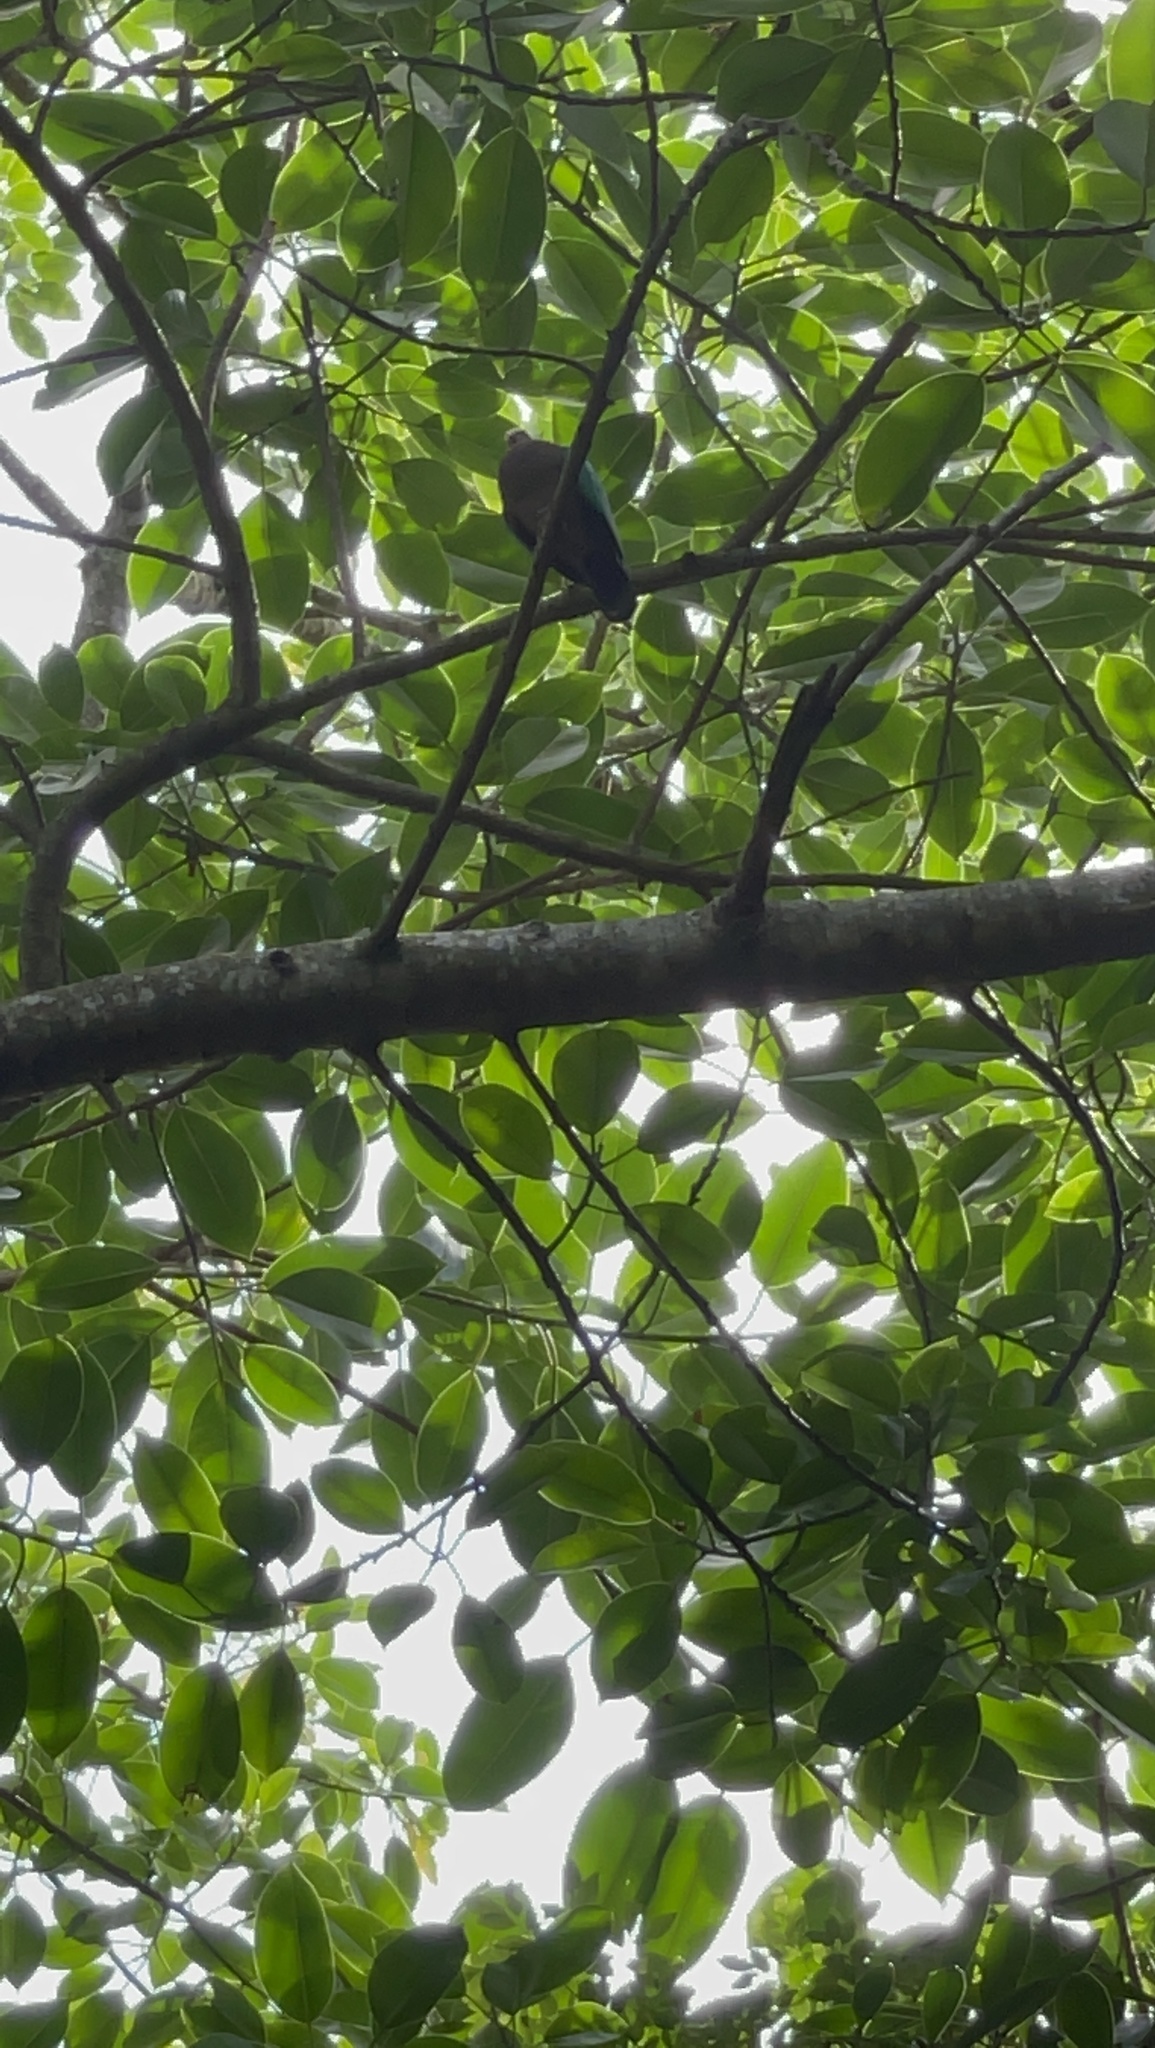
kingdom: Animalia
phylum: Chordata
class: Aves
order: Columbiformes
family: Columbidae
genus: Chalcophaps
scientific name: Chalcophaps indica
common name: Common emerald dove
